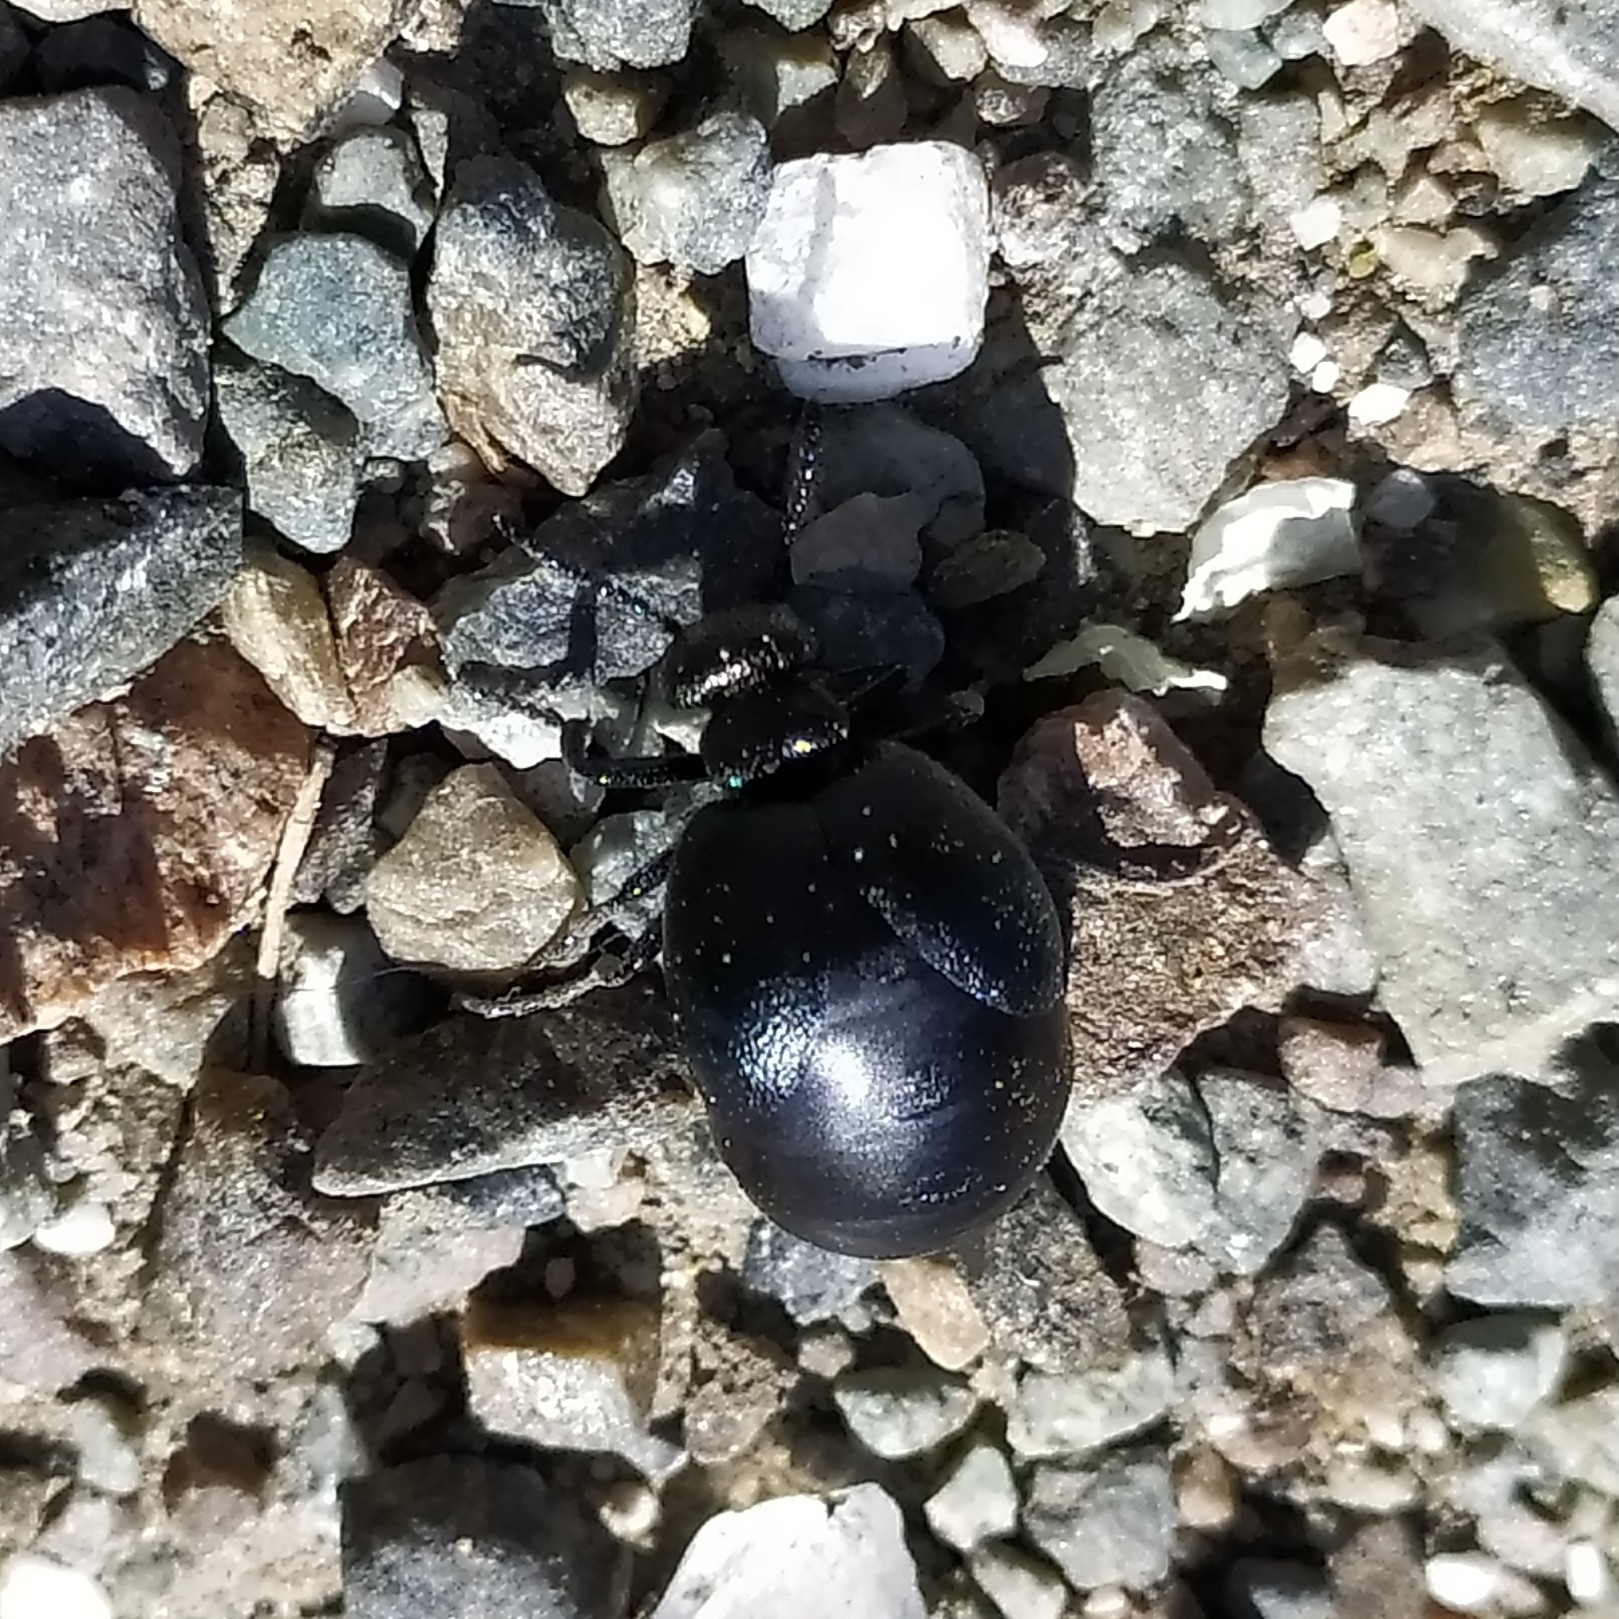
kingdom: Animalia
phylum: Arthropoda
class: Insecta
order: Coleoptera
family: Meloidae
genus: Meloe
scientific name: Meloe brevicollis
